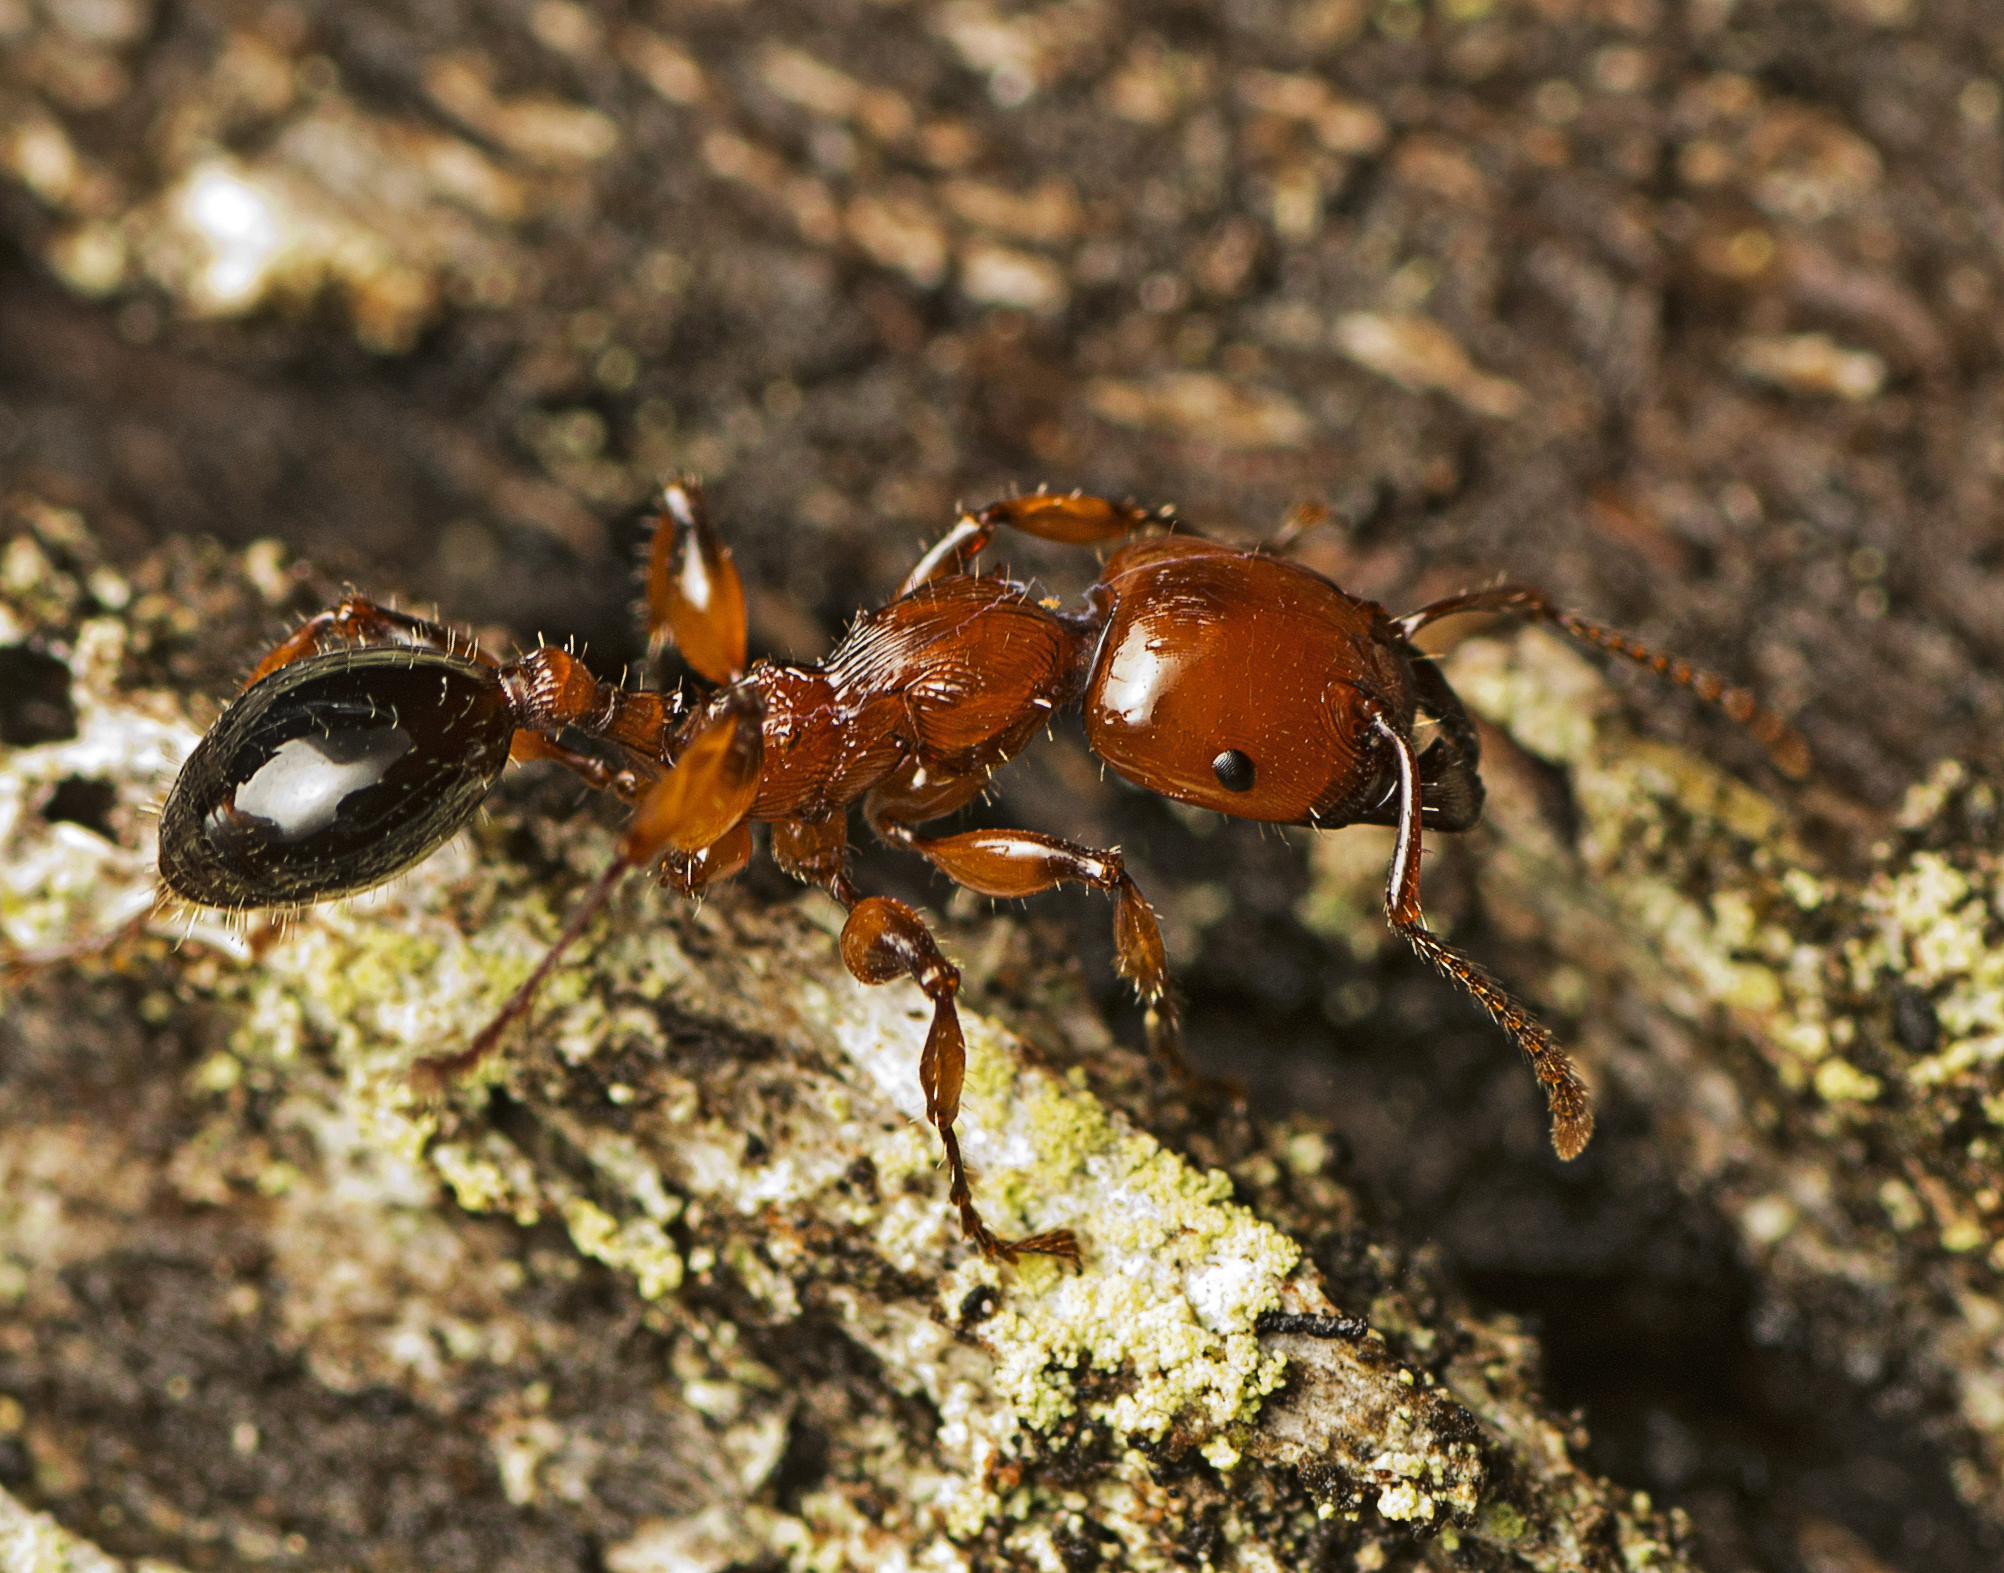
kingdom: Animalia
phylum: Arthropoda
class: Insecta
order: Hymenoptera
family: Formicidae
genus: Podomyrma
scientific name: Podomyrma gratiosa
